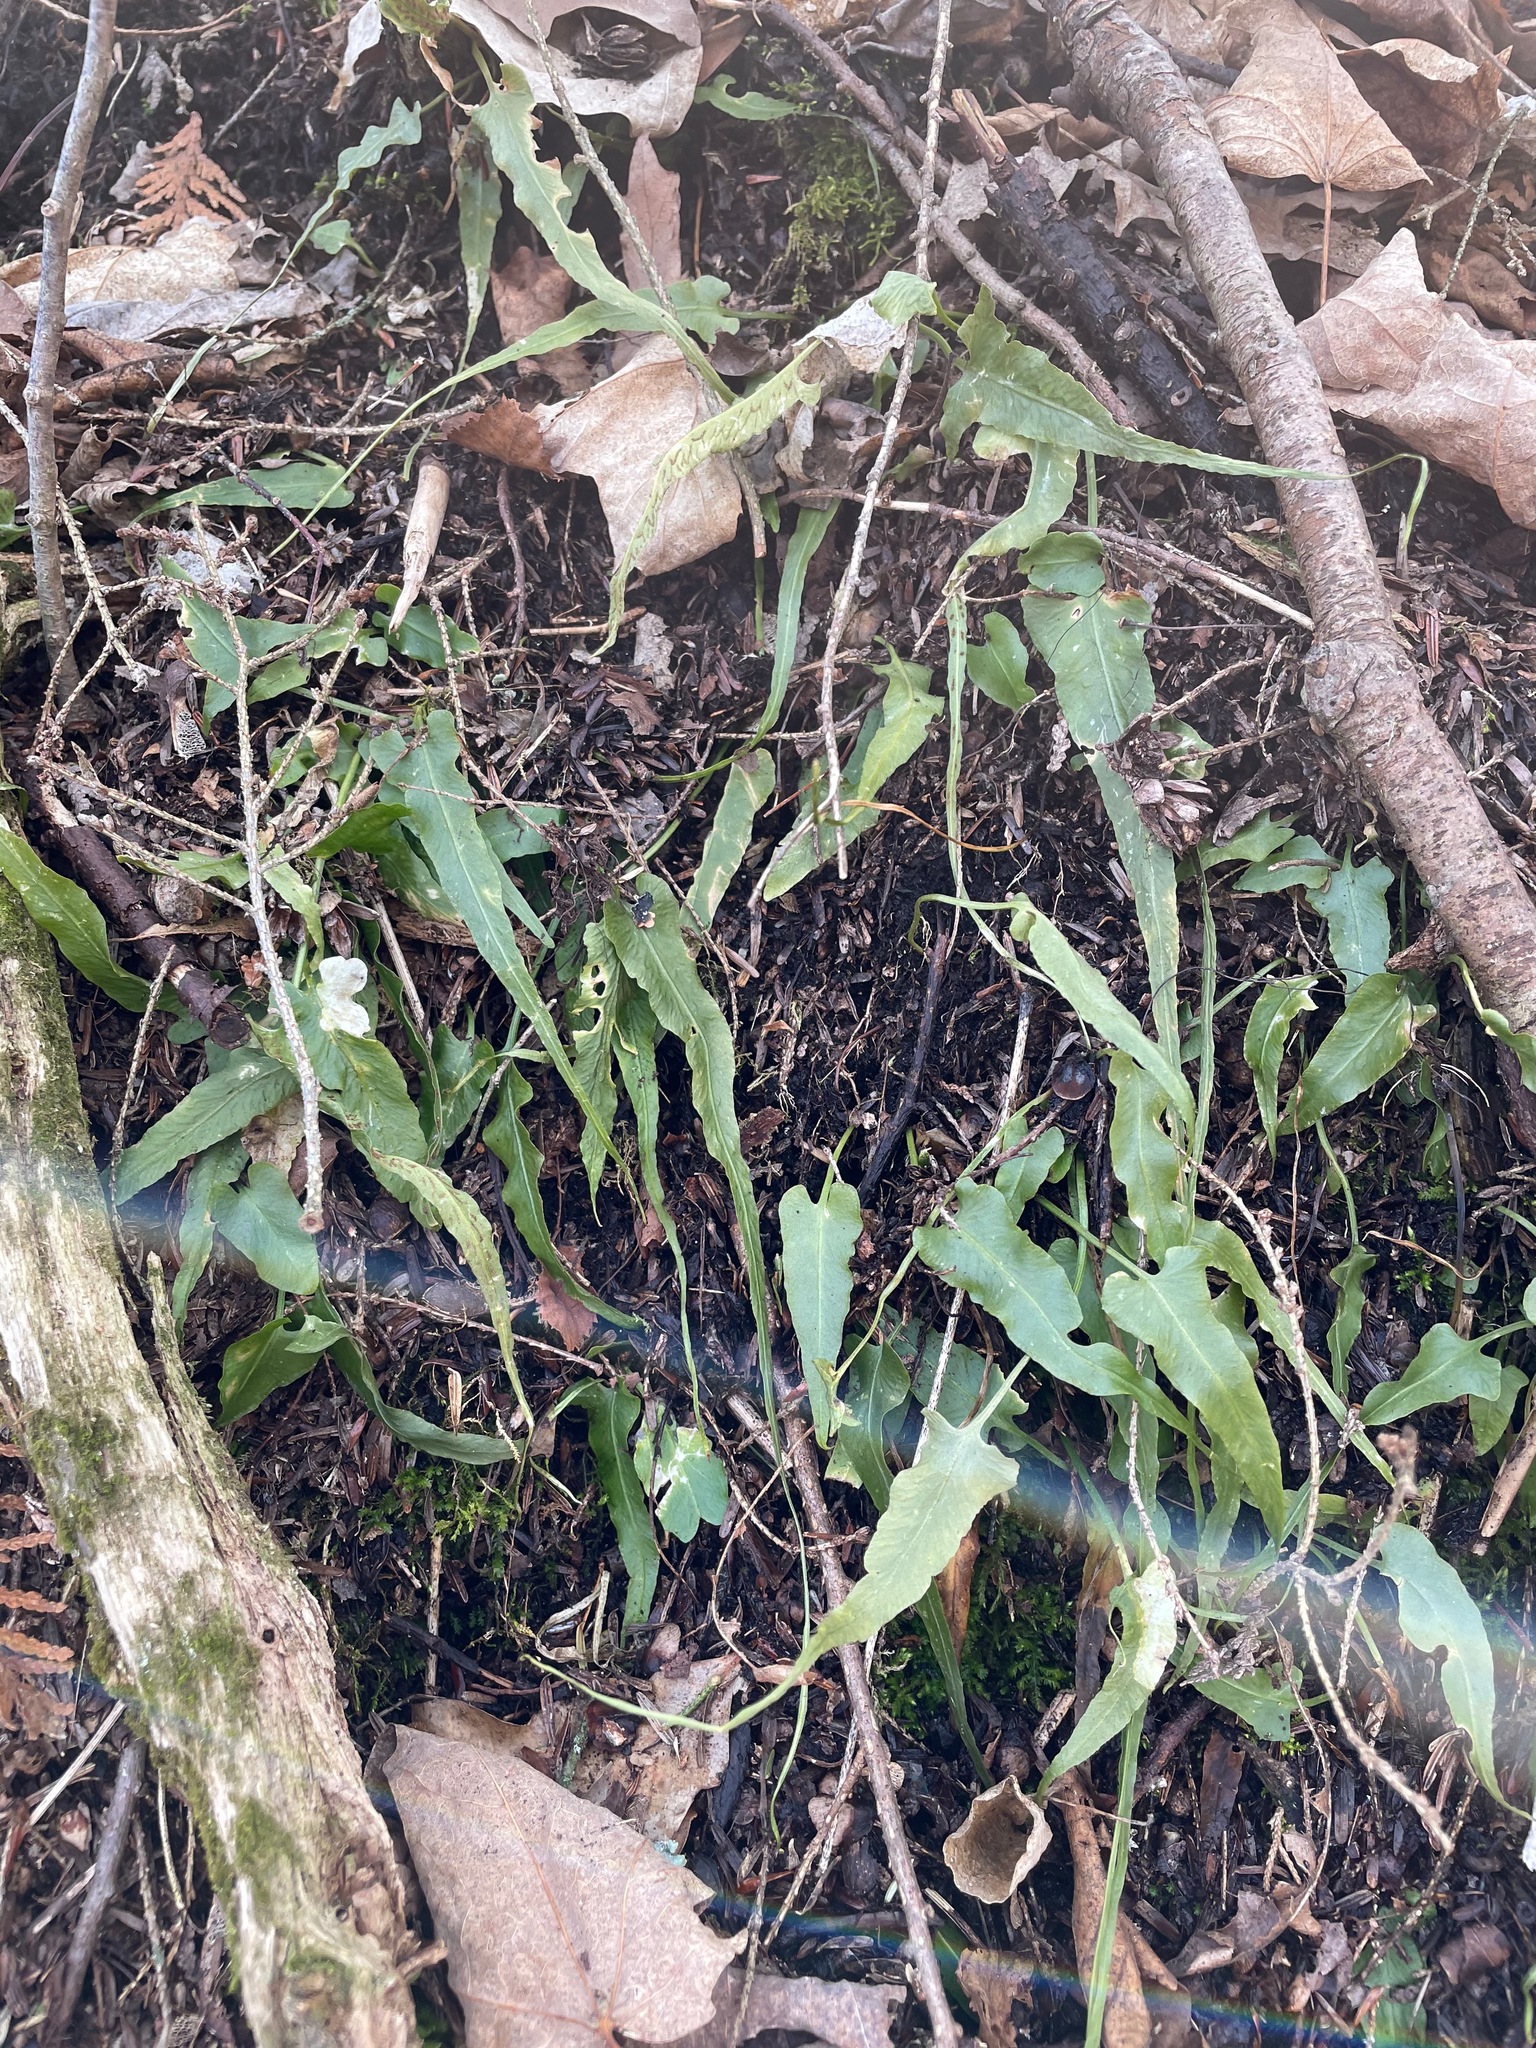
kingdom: Plantae
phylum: Tracheophyta
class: Polypodiopsida
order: Polypodiales
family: Aspleniaceae
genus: Asplenium
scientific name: Asplenium rhizophyllum
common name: Walking fern
